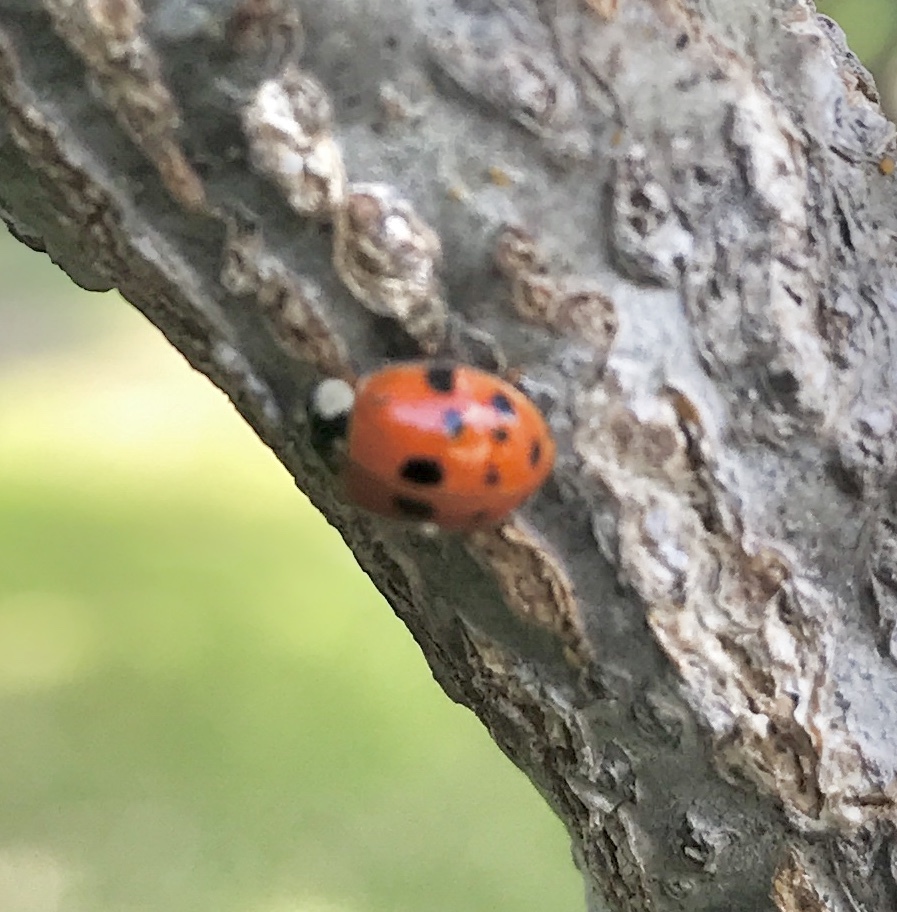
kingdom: Animalia
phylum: Arthropoda
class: Insecta
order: Coleoptera
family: Coccinellidae
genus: Harmonia
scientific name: Harmonia axyridis
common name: Harlequin ladybird
